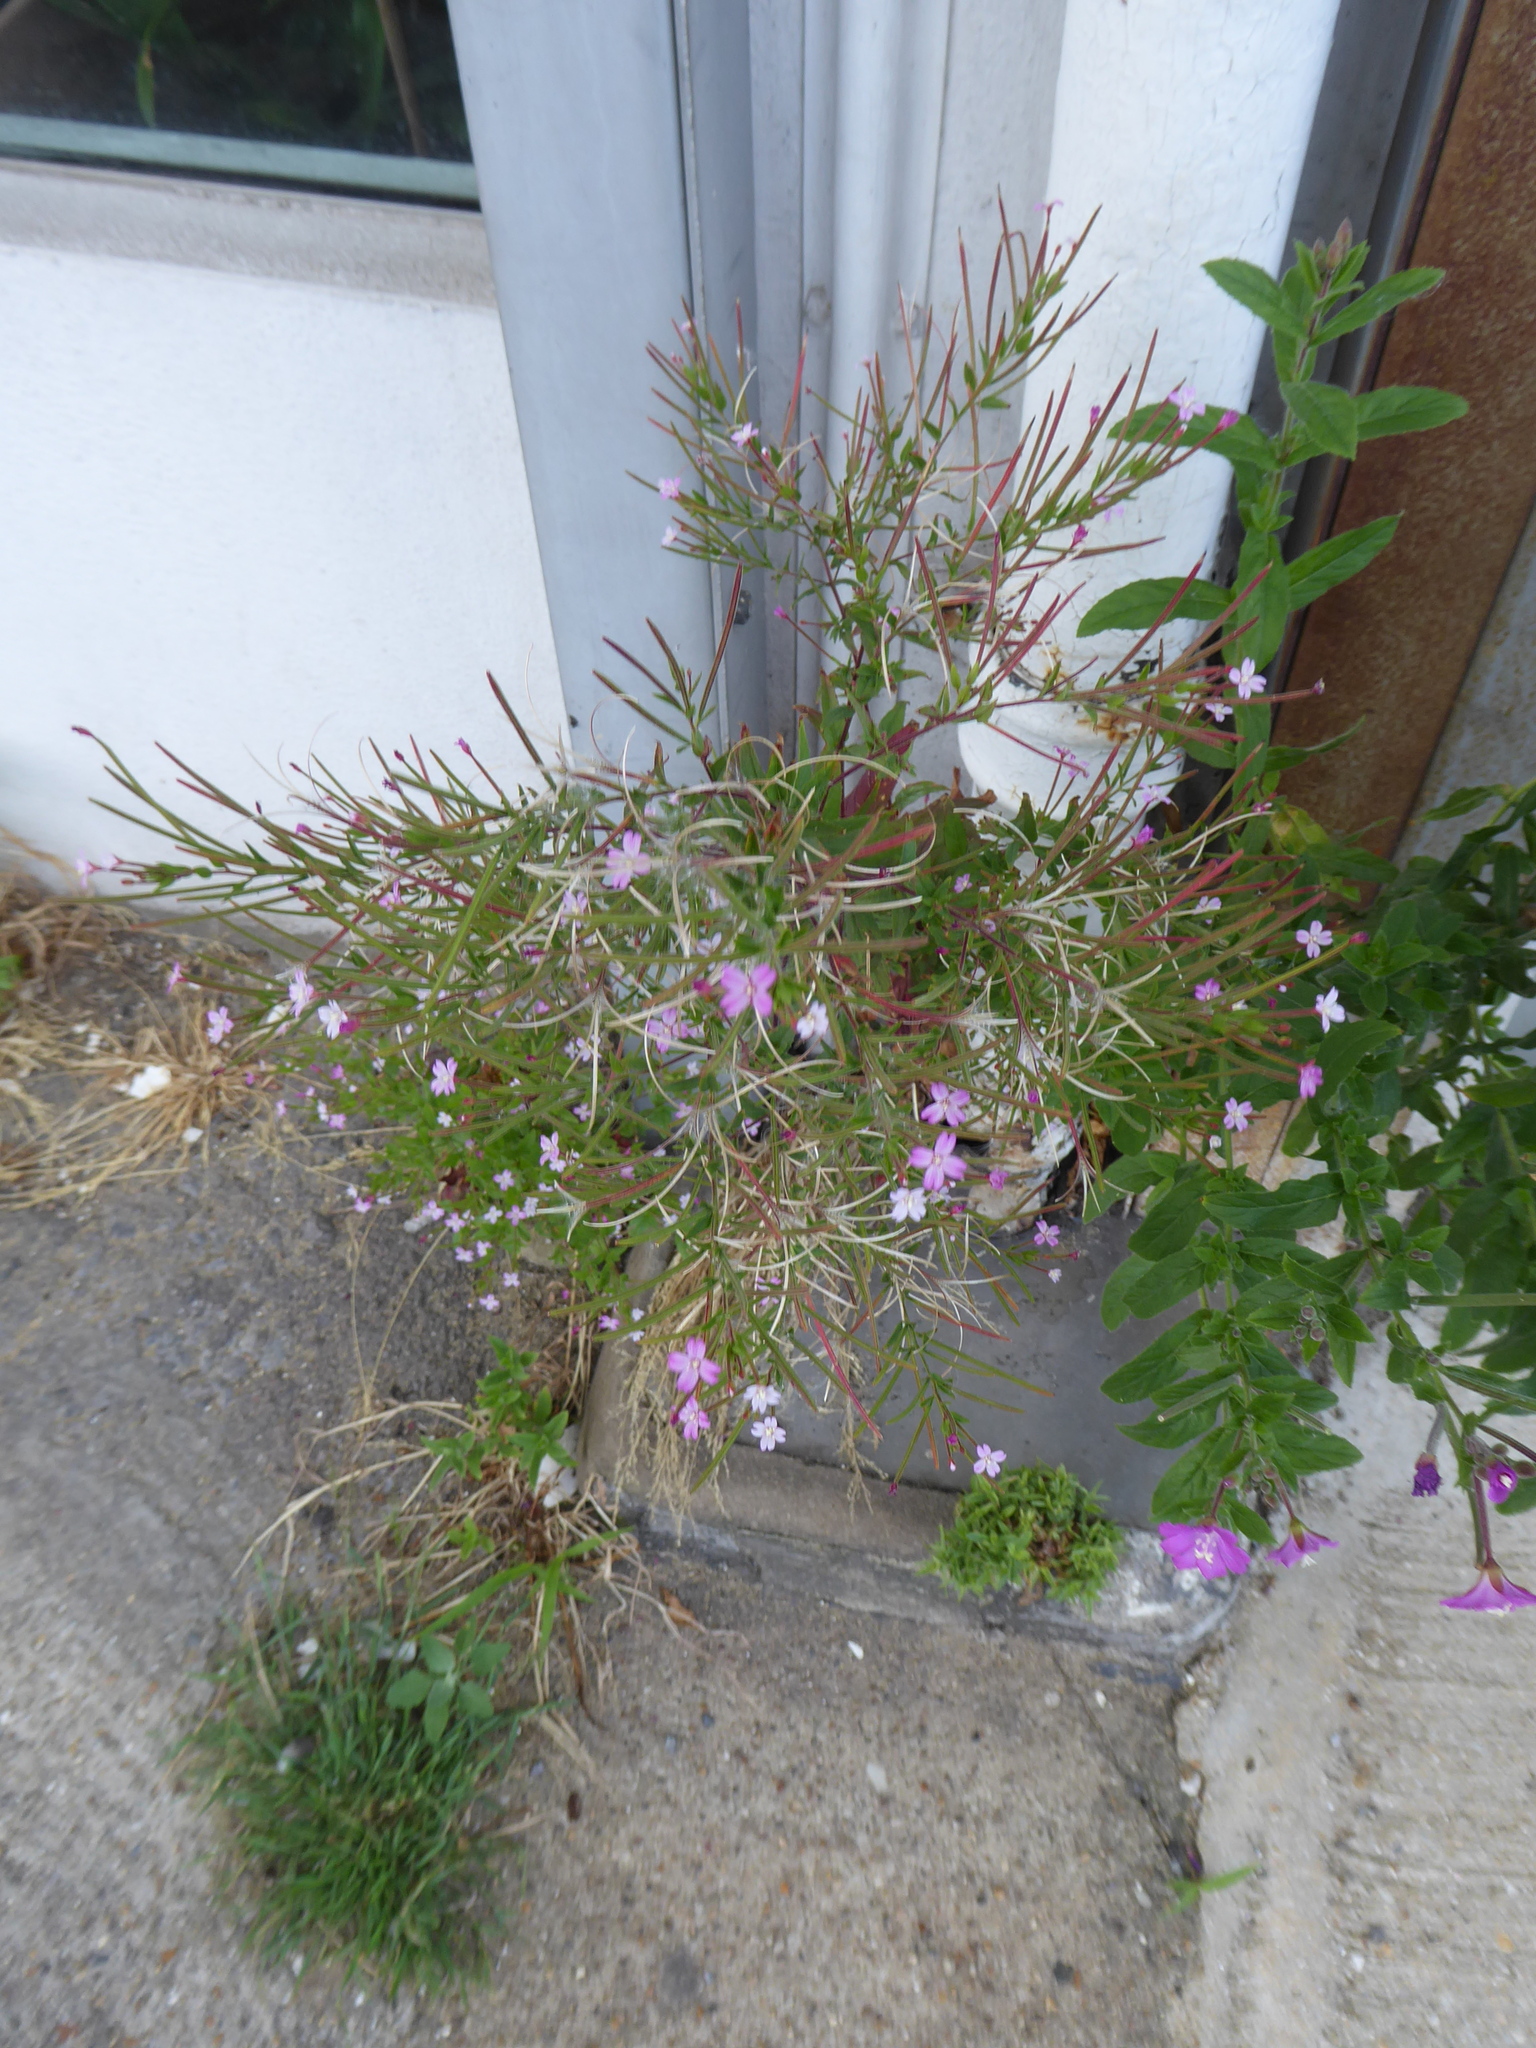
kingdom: Plantae
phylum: Tracheophyta
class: Magnoliopsida
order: Myrtales
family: Onagraceae
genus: Epilobium
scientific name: Epilobium ciliatum
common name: American willowherb
